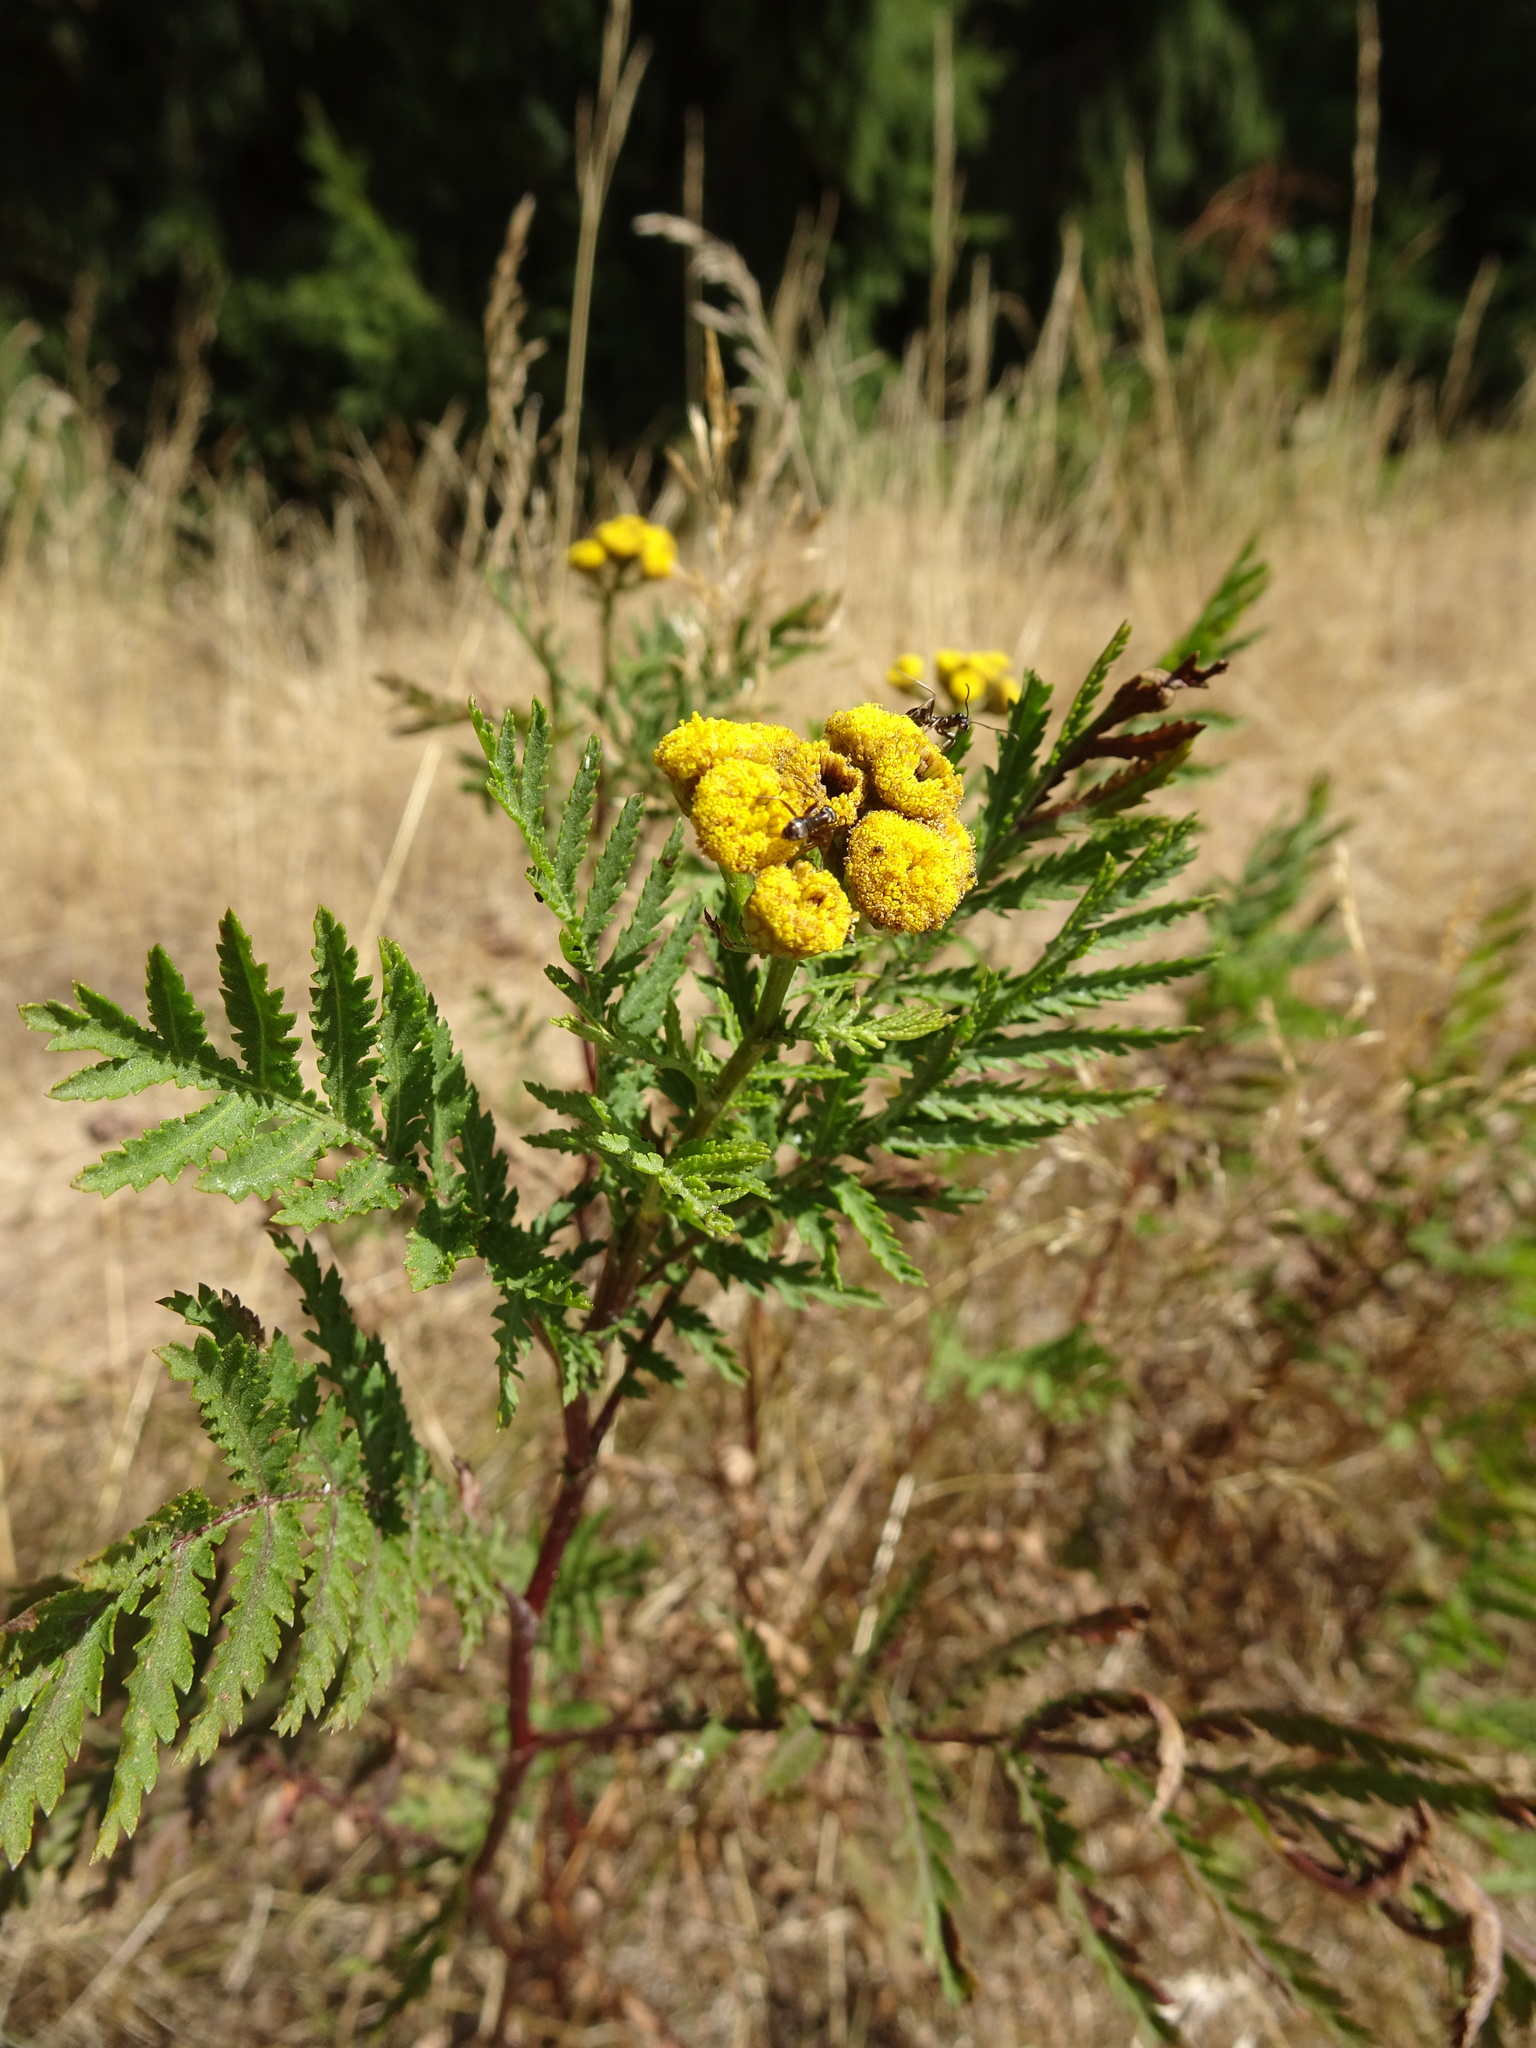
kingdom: Plantae
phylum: Tracheophyta
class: Magnoliopsida
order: Asterales
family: Asteraceae
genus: Tanacetum
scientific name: Tanacetum vulgare
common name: Common tansy
